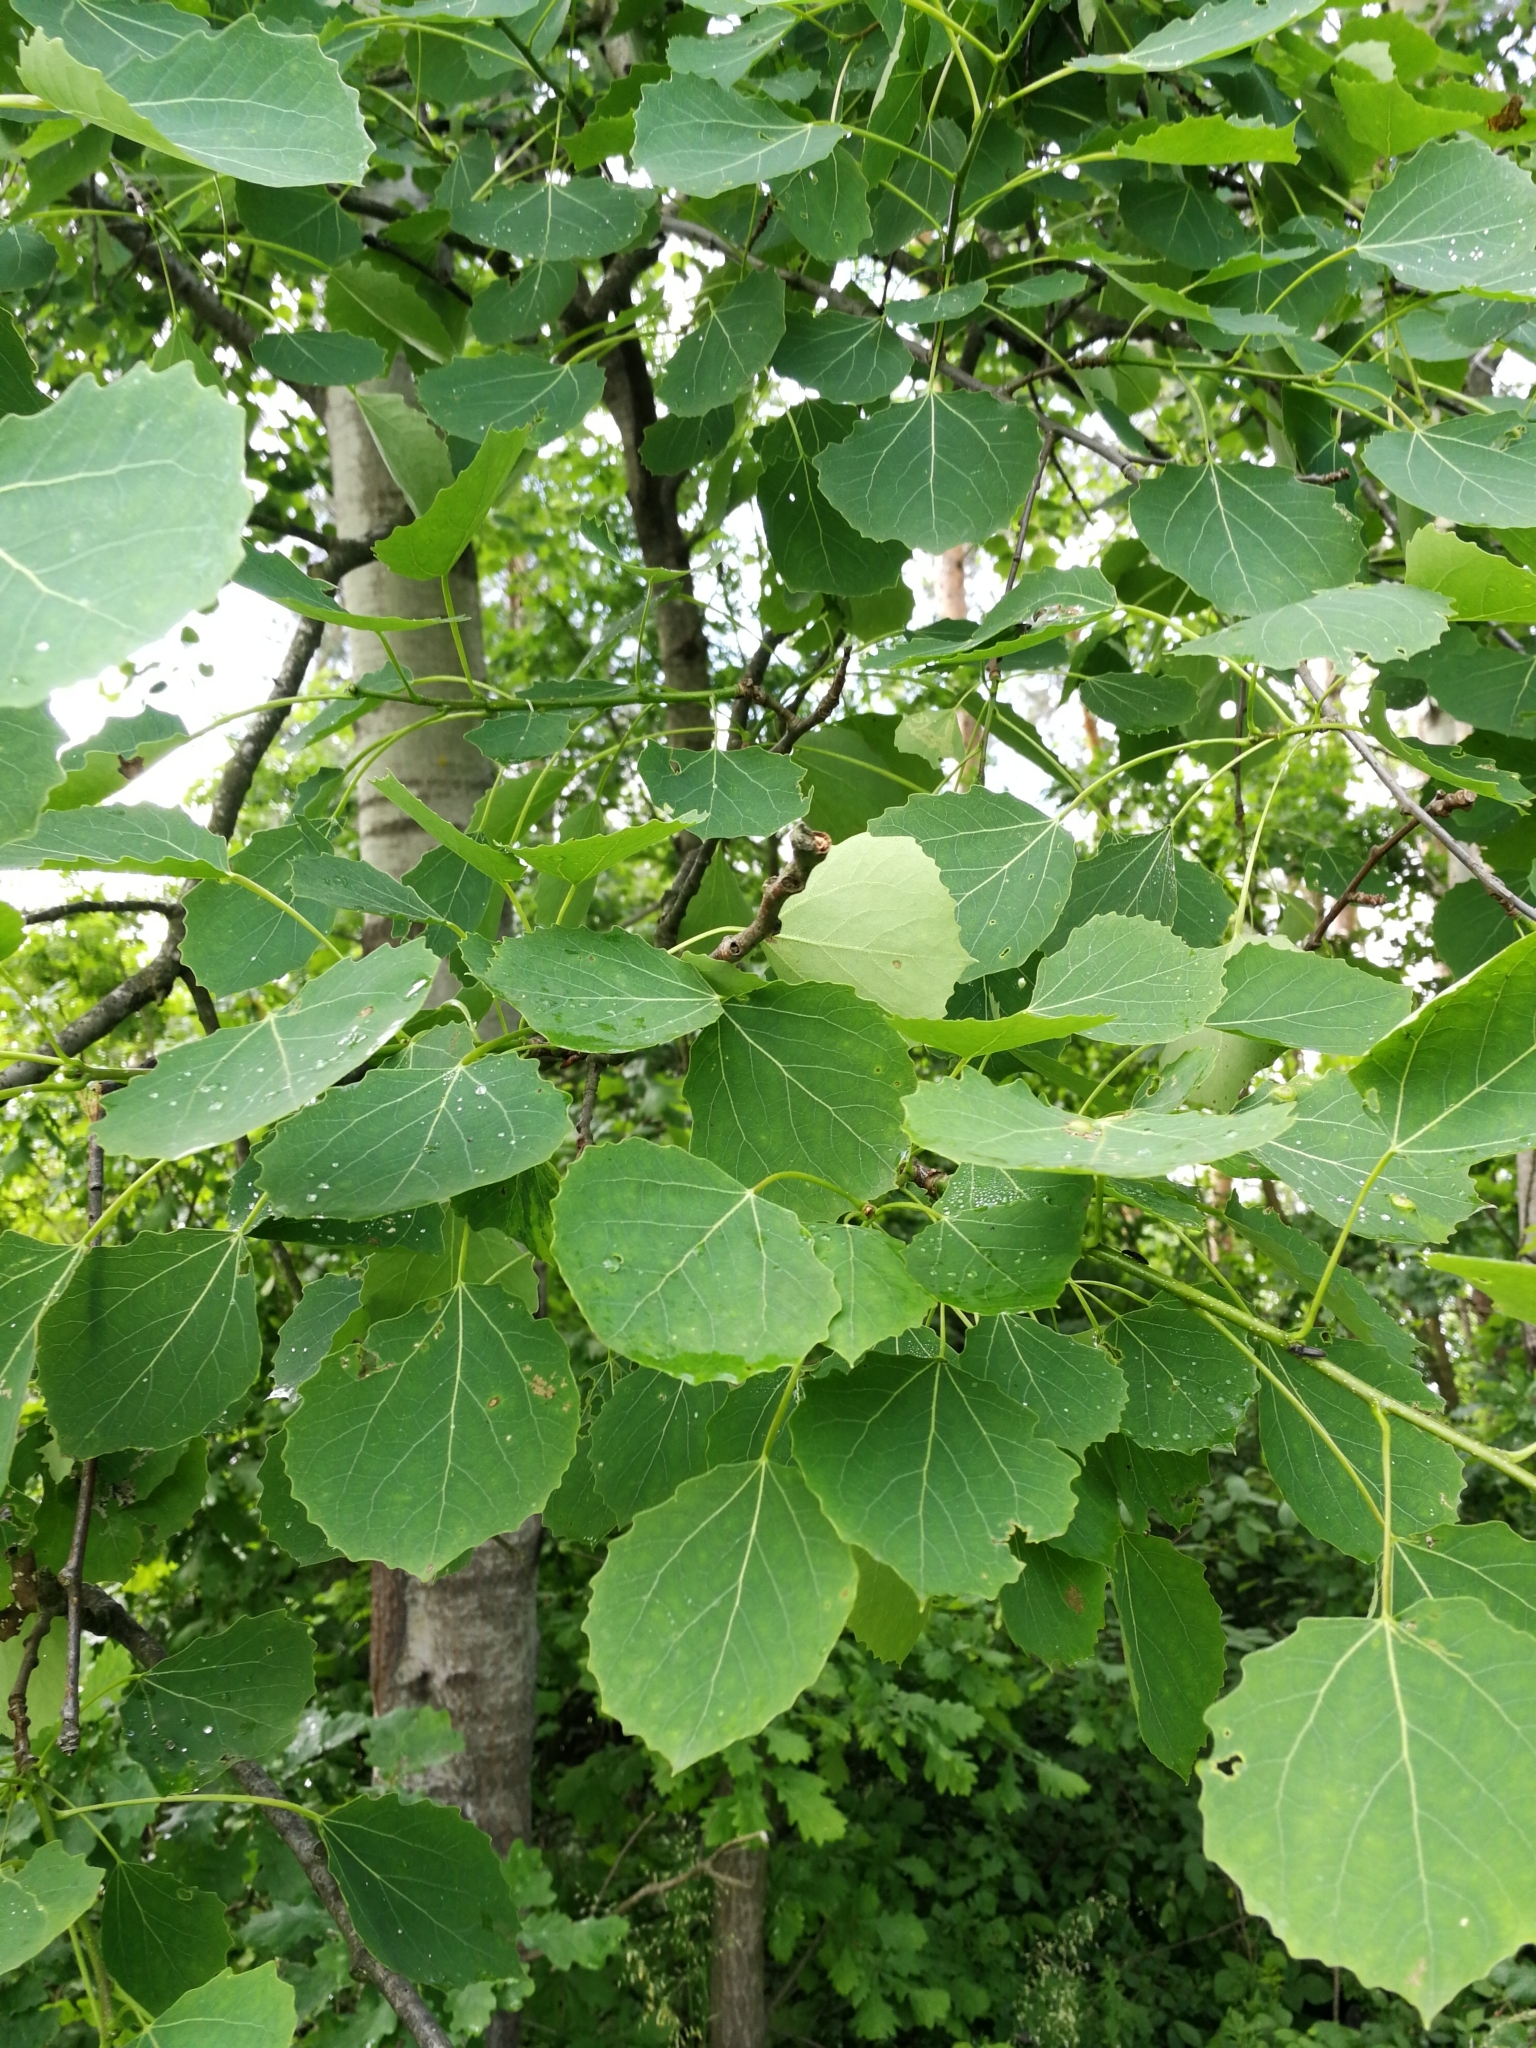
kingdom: Plantae
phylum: Tracheophyta
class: Magnoliopsida
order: Malpighiales
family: Salicaceae
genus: Populus
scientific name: Populus tremula
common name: European aspen
